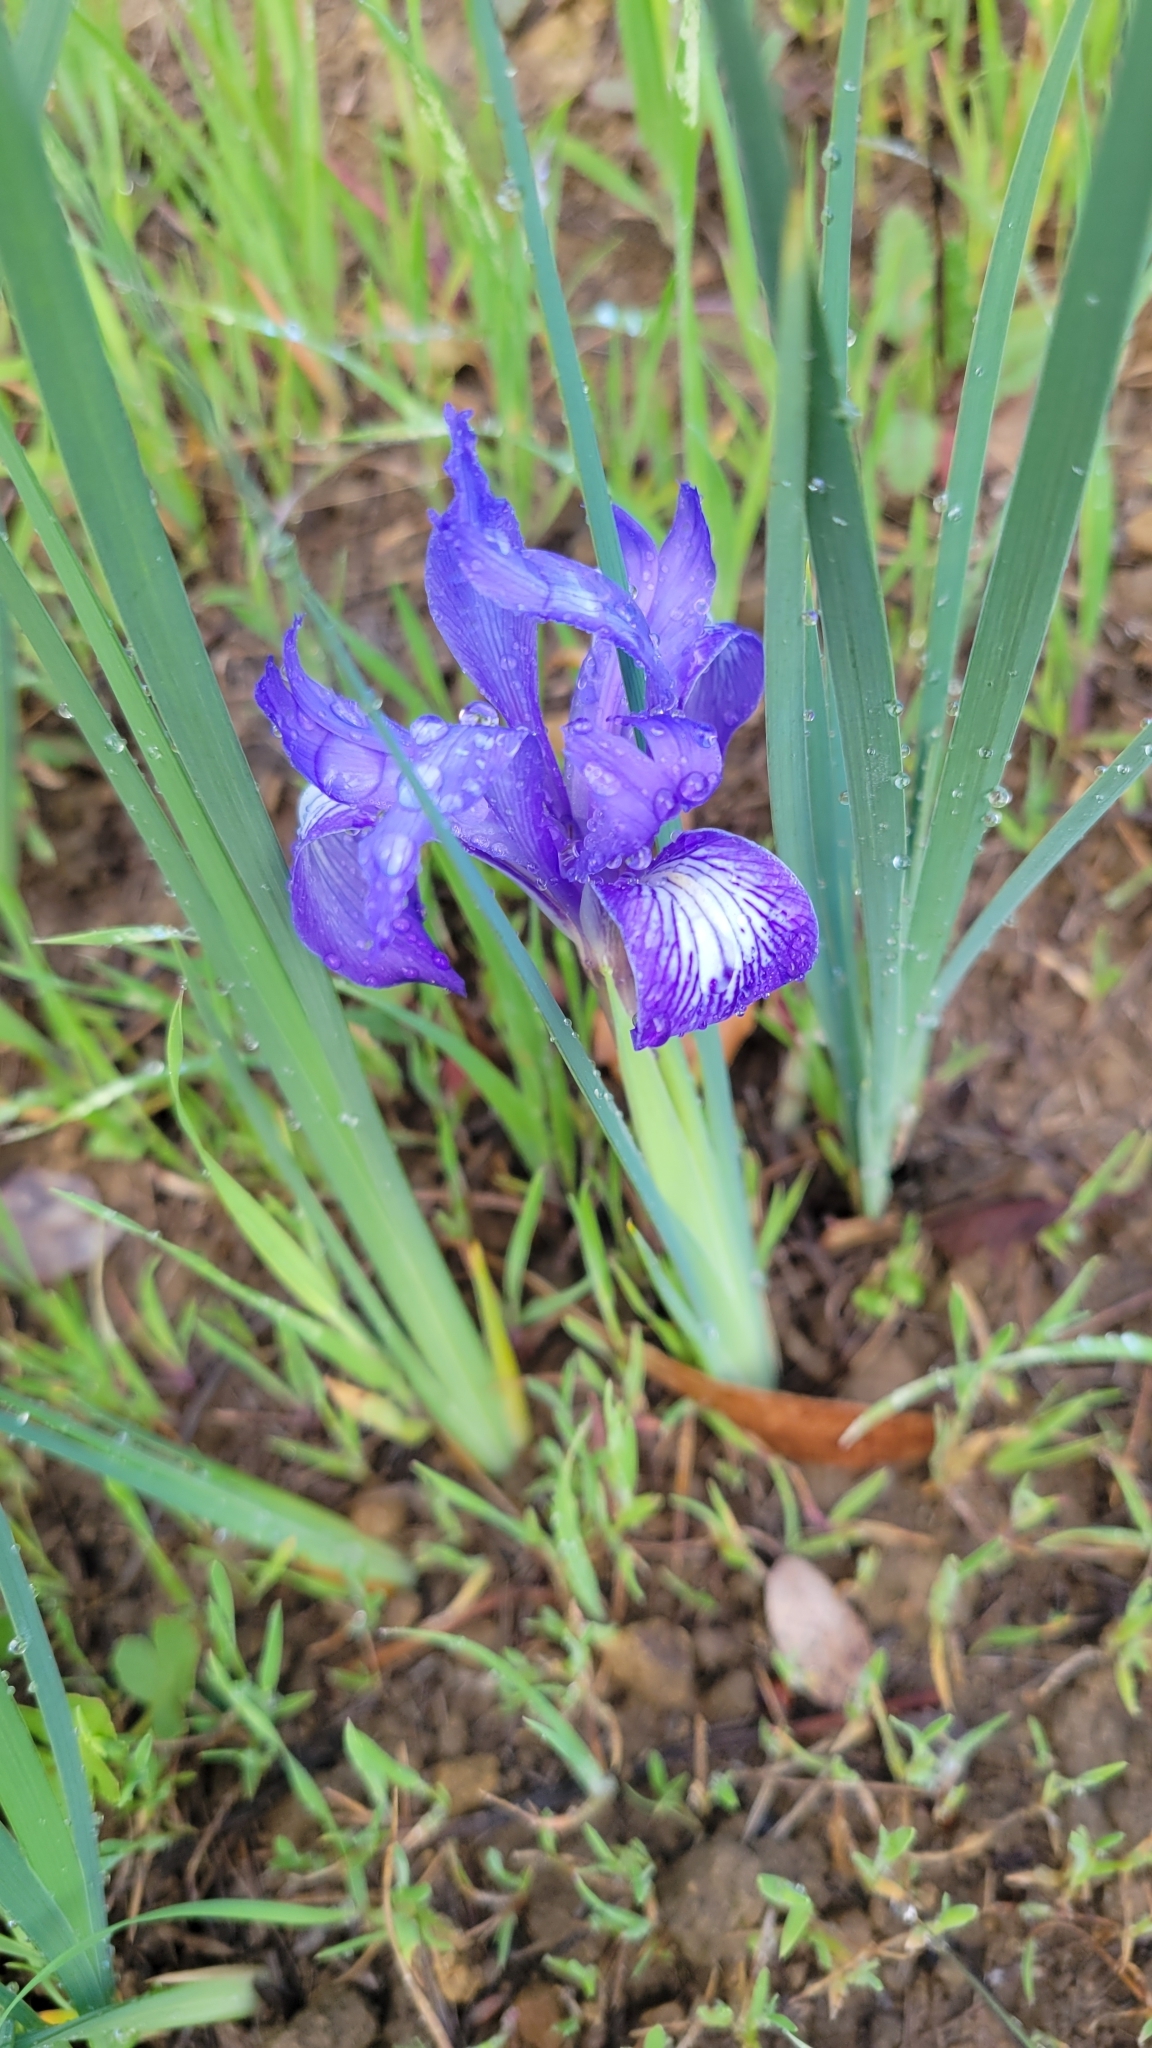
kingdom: Plantae
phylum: Tracheophyta
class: Liliopsida
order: Asparagales
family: Iridaceae
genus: Iris
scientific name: Iris macrosiphon
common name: Ground iris
